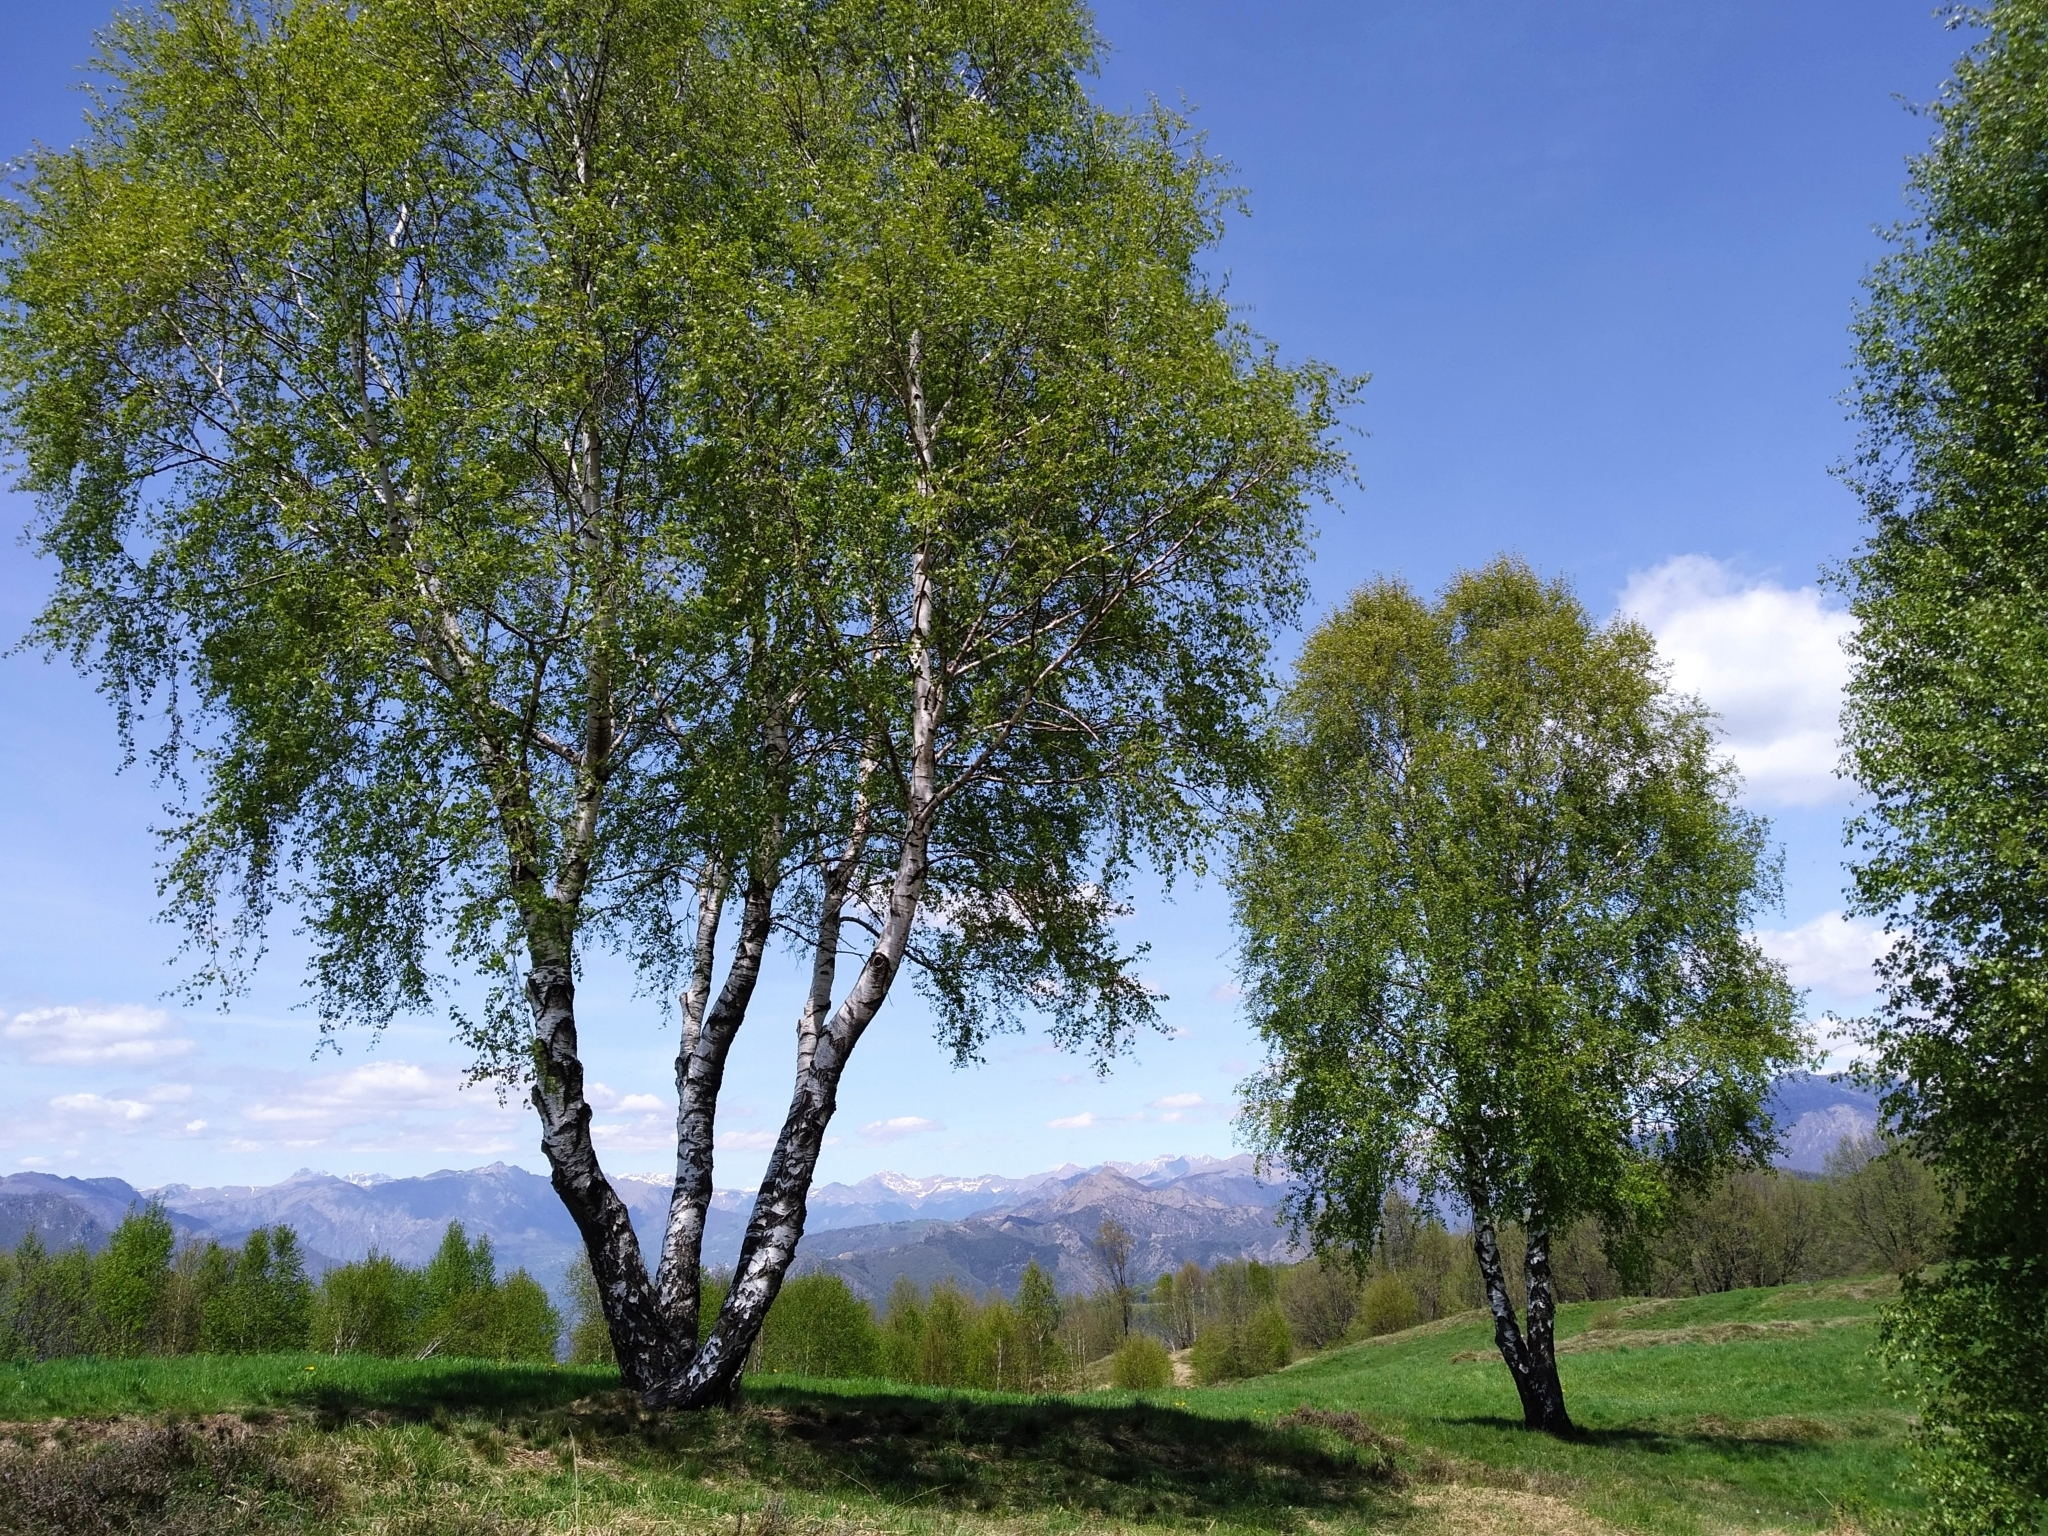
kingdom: Plantae
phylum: Tracheophyta
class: Magnoliopsida
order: Fagales
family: Betulaceae
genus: Betula
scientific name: Betula pendula
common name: Silver birch
